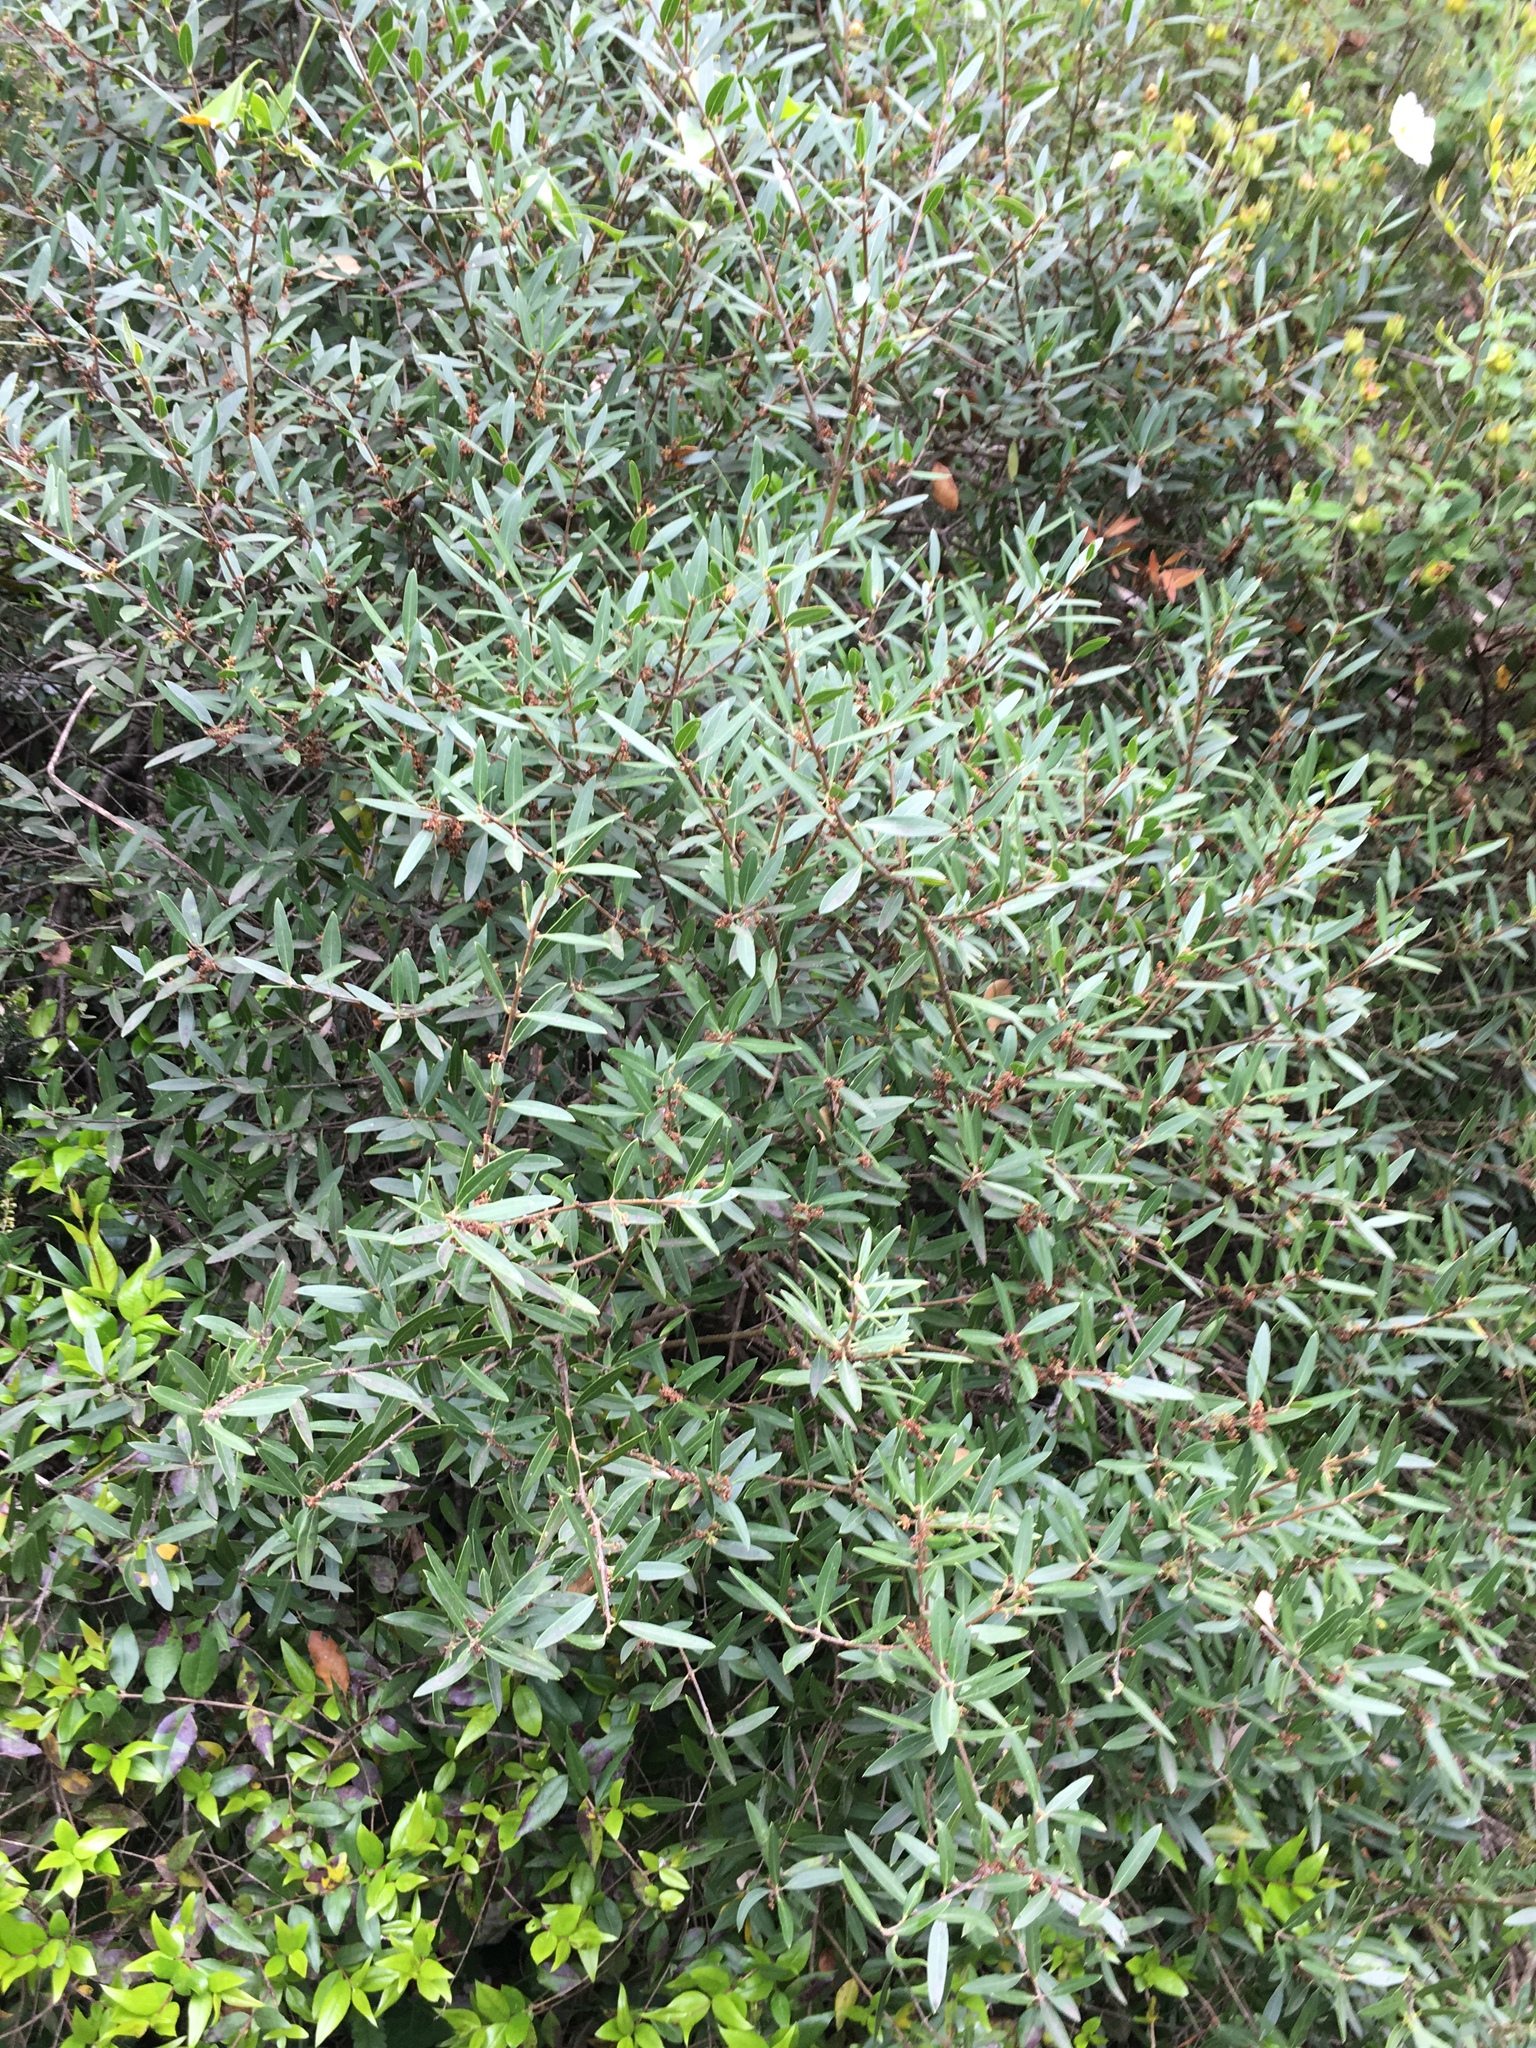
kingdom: Plantae
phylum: Tracheophyta
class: Magnoliopsida
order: Lamiales
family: Oleaceae
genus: Phillyrea
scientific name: Phillyrea angustifolia
